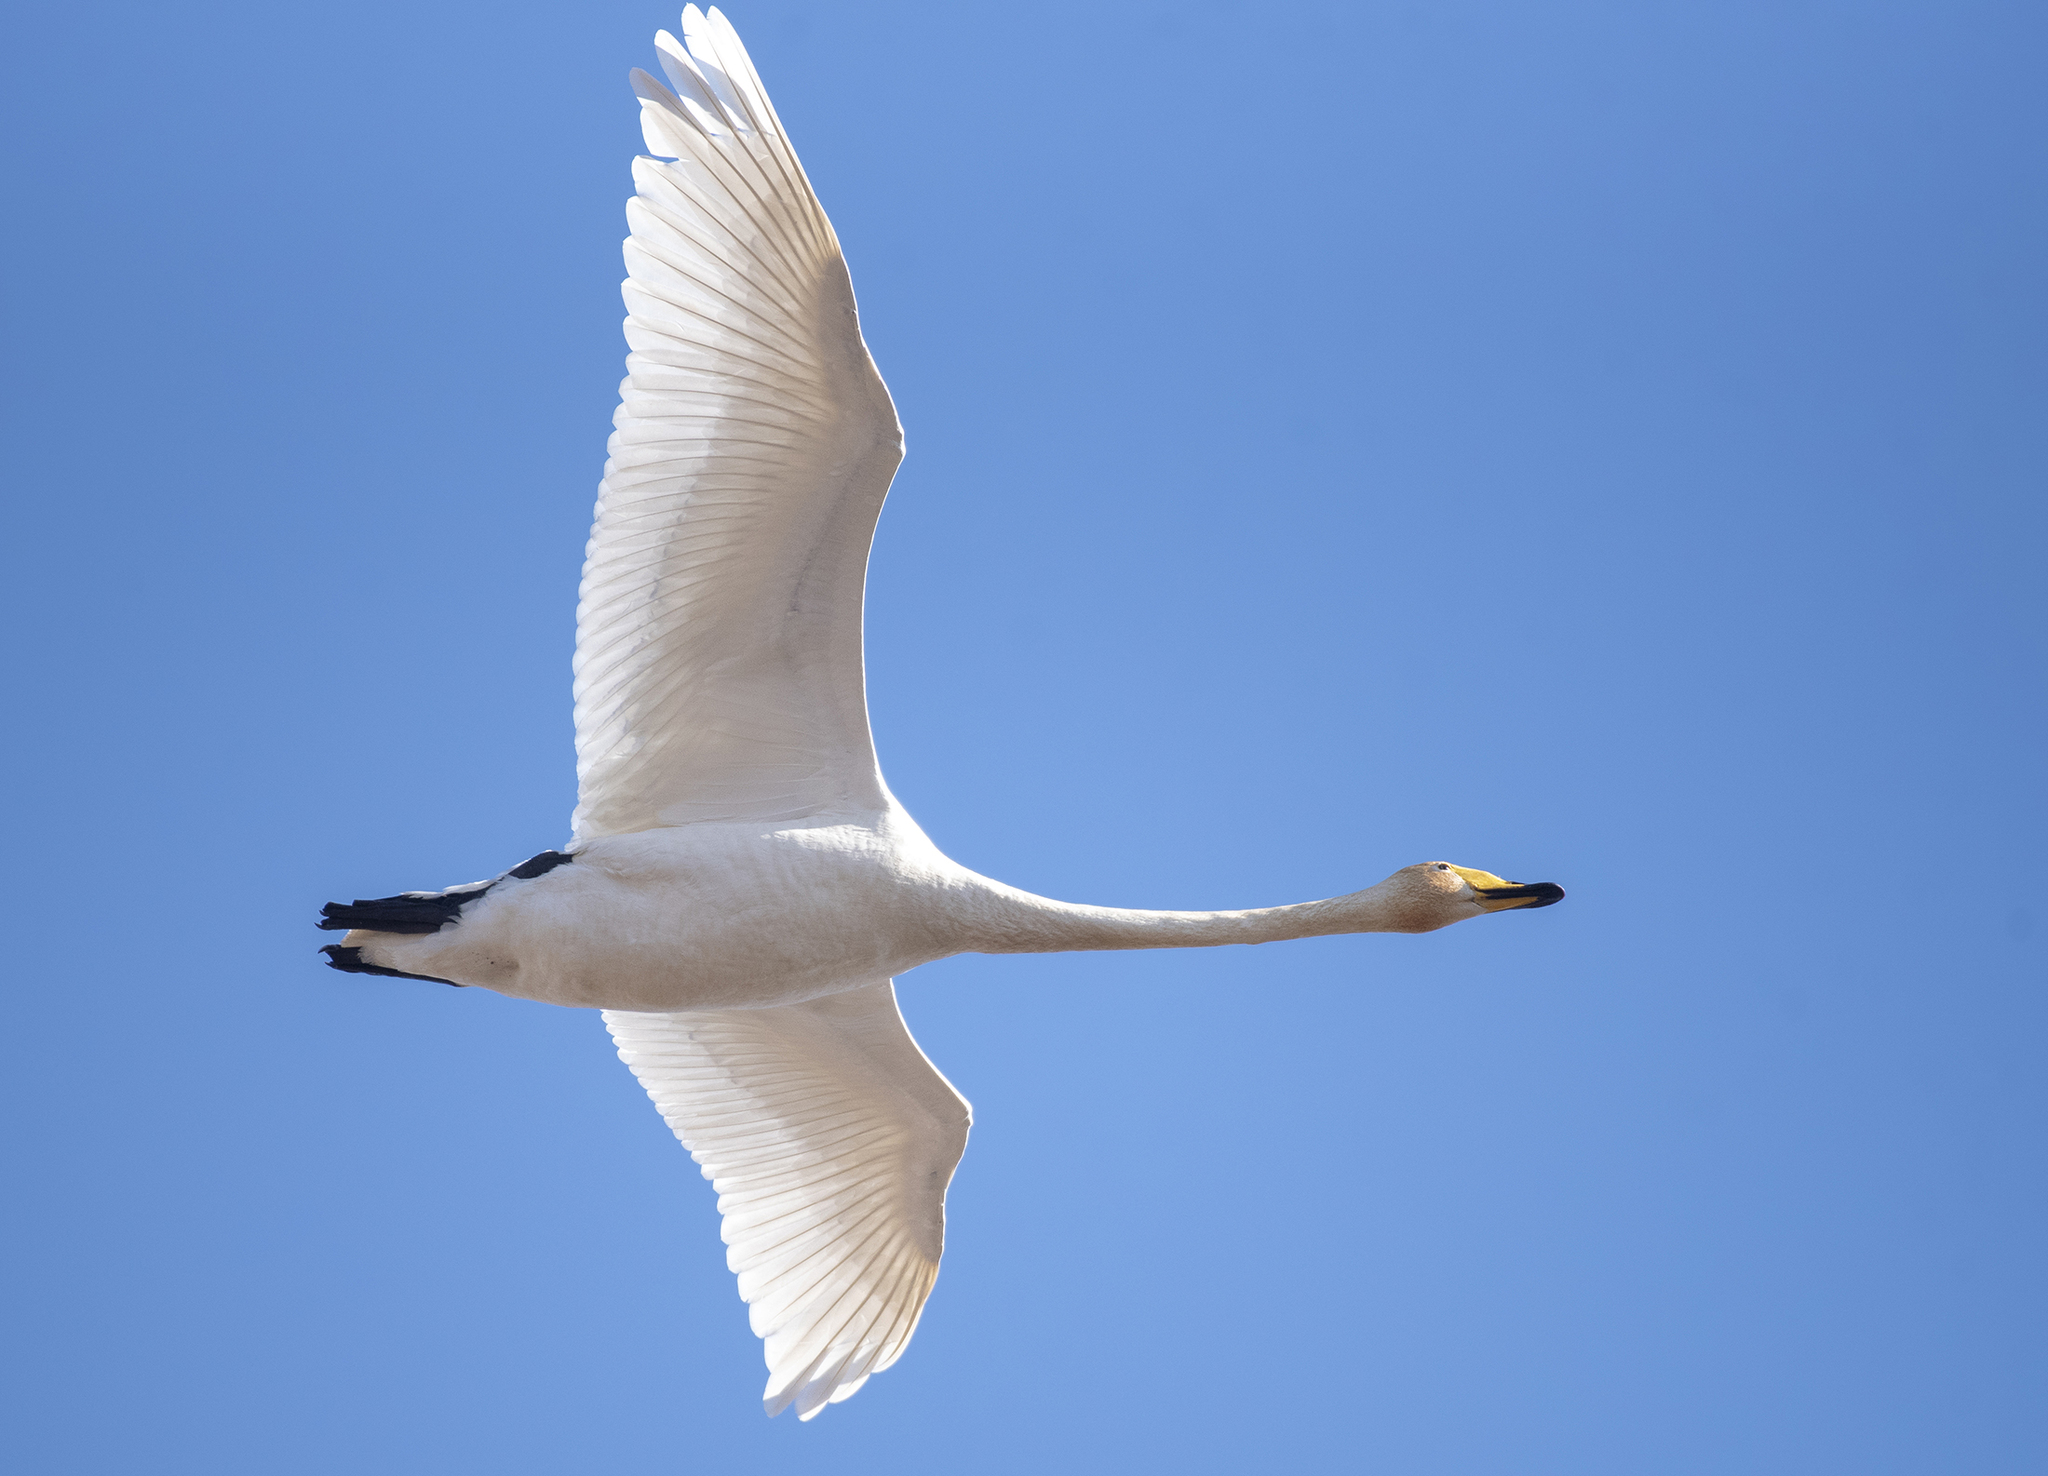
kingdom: Animalia
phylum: Chordata
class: Aves
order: Anseriformes
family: Anatidae
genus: Cygnus
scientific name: Cygnus cygnus
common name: Whooper swan
